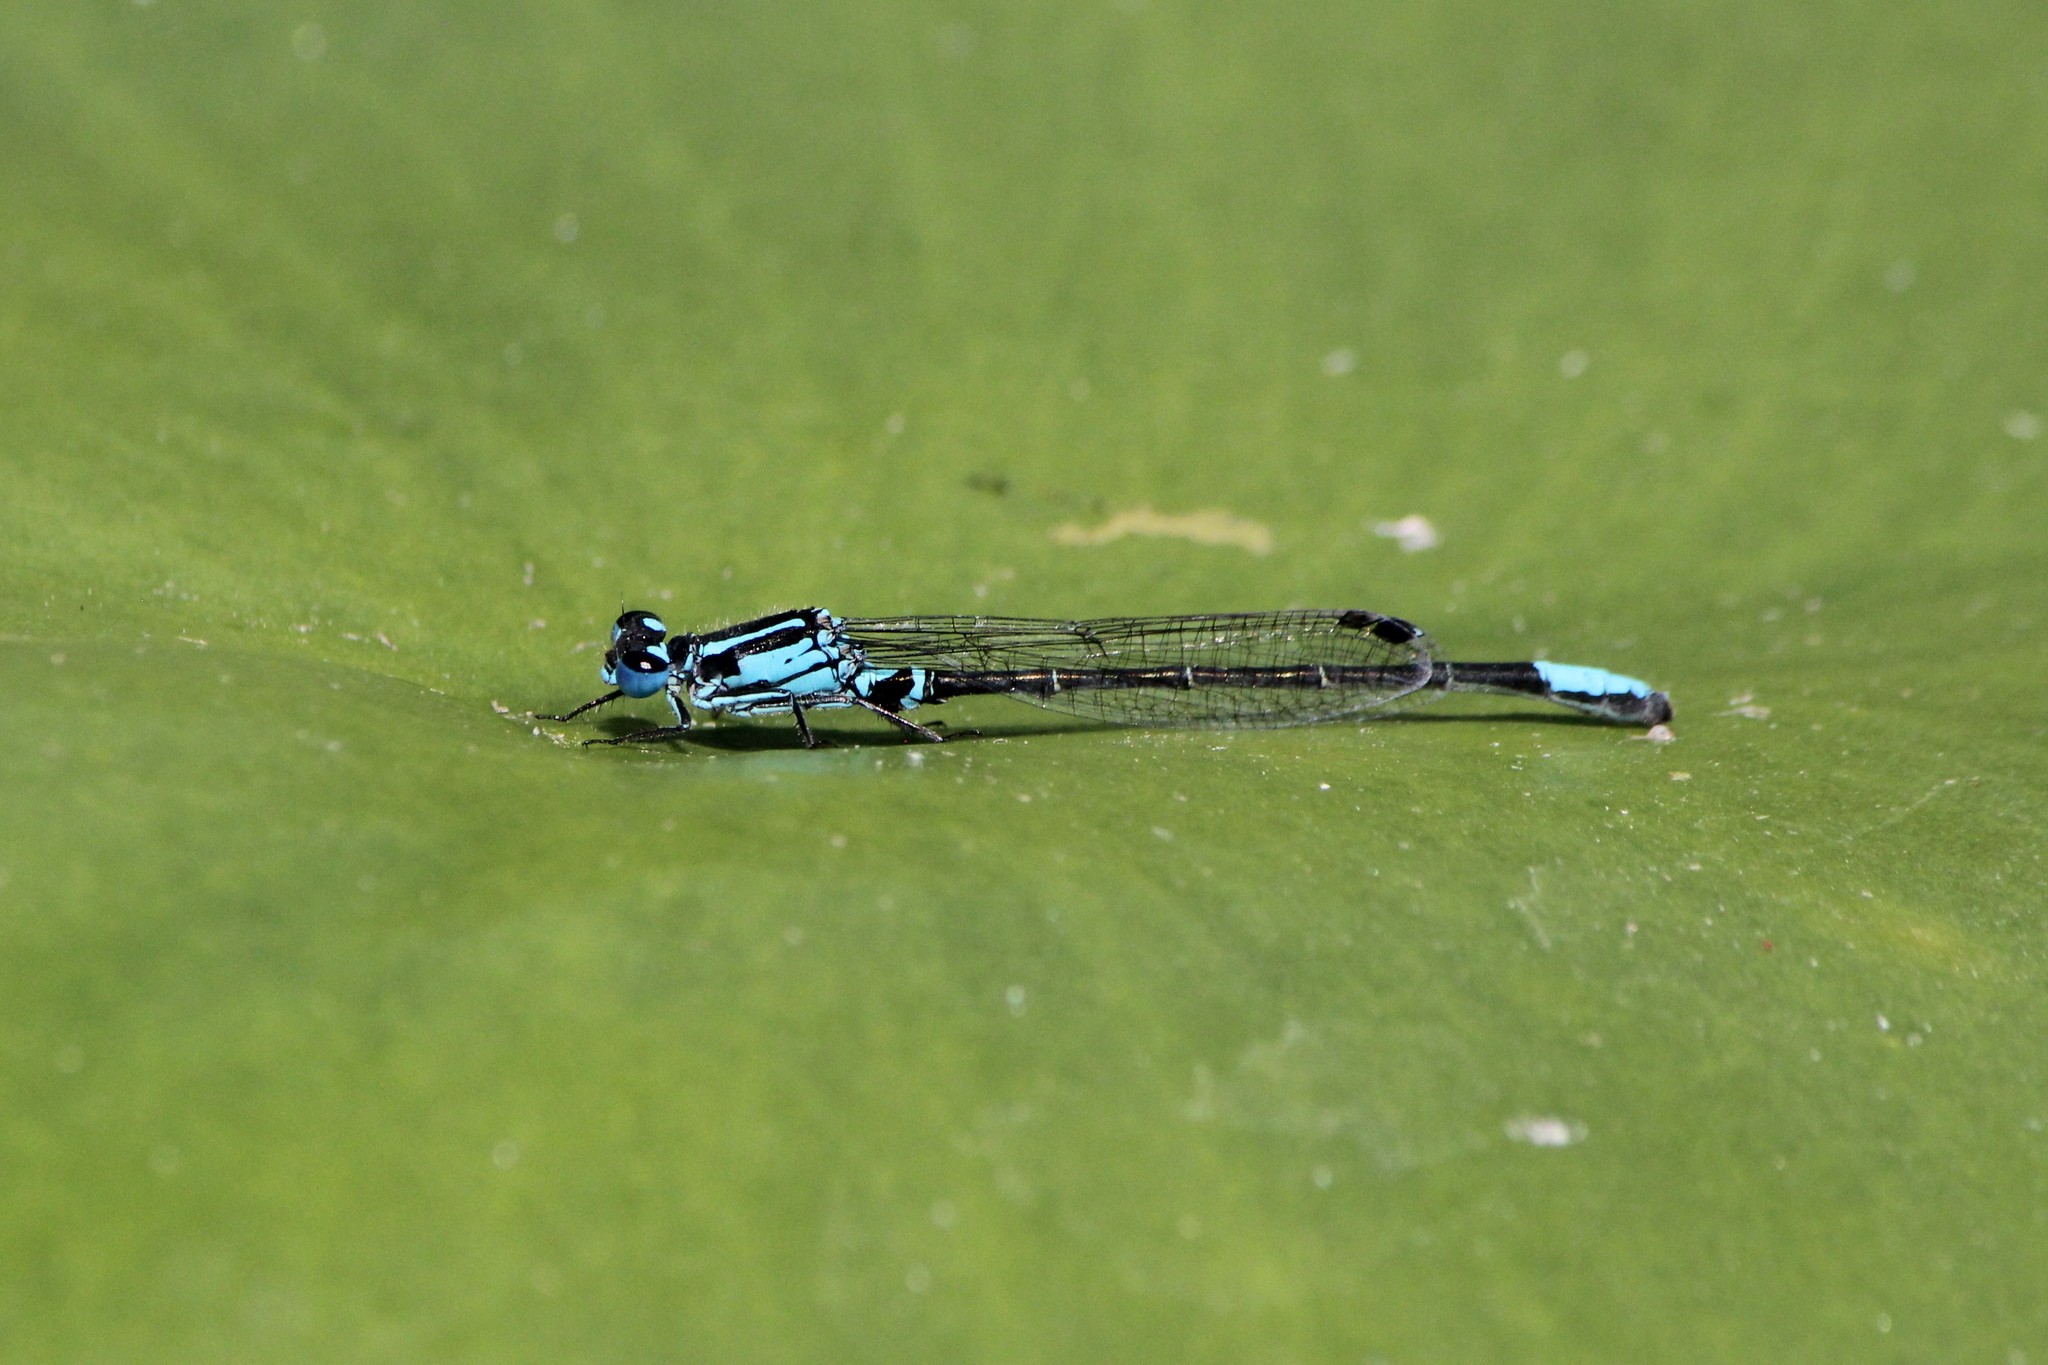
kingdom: Animalia
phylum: Arthropoda
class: Insecta
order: Odonata
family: Coenagrionidae
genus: Ischnura
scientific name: Ischnura kellicotti
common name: Lilypad forktail
